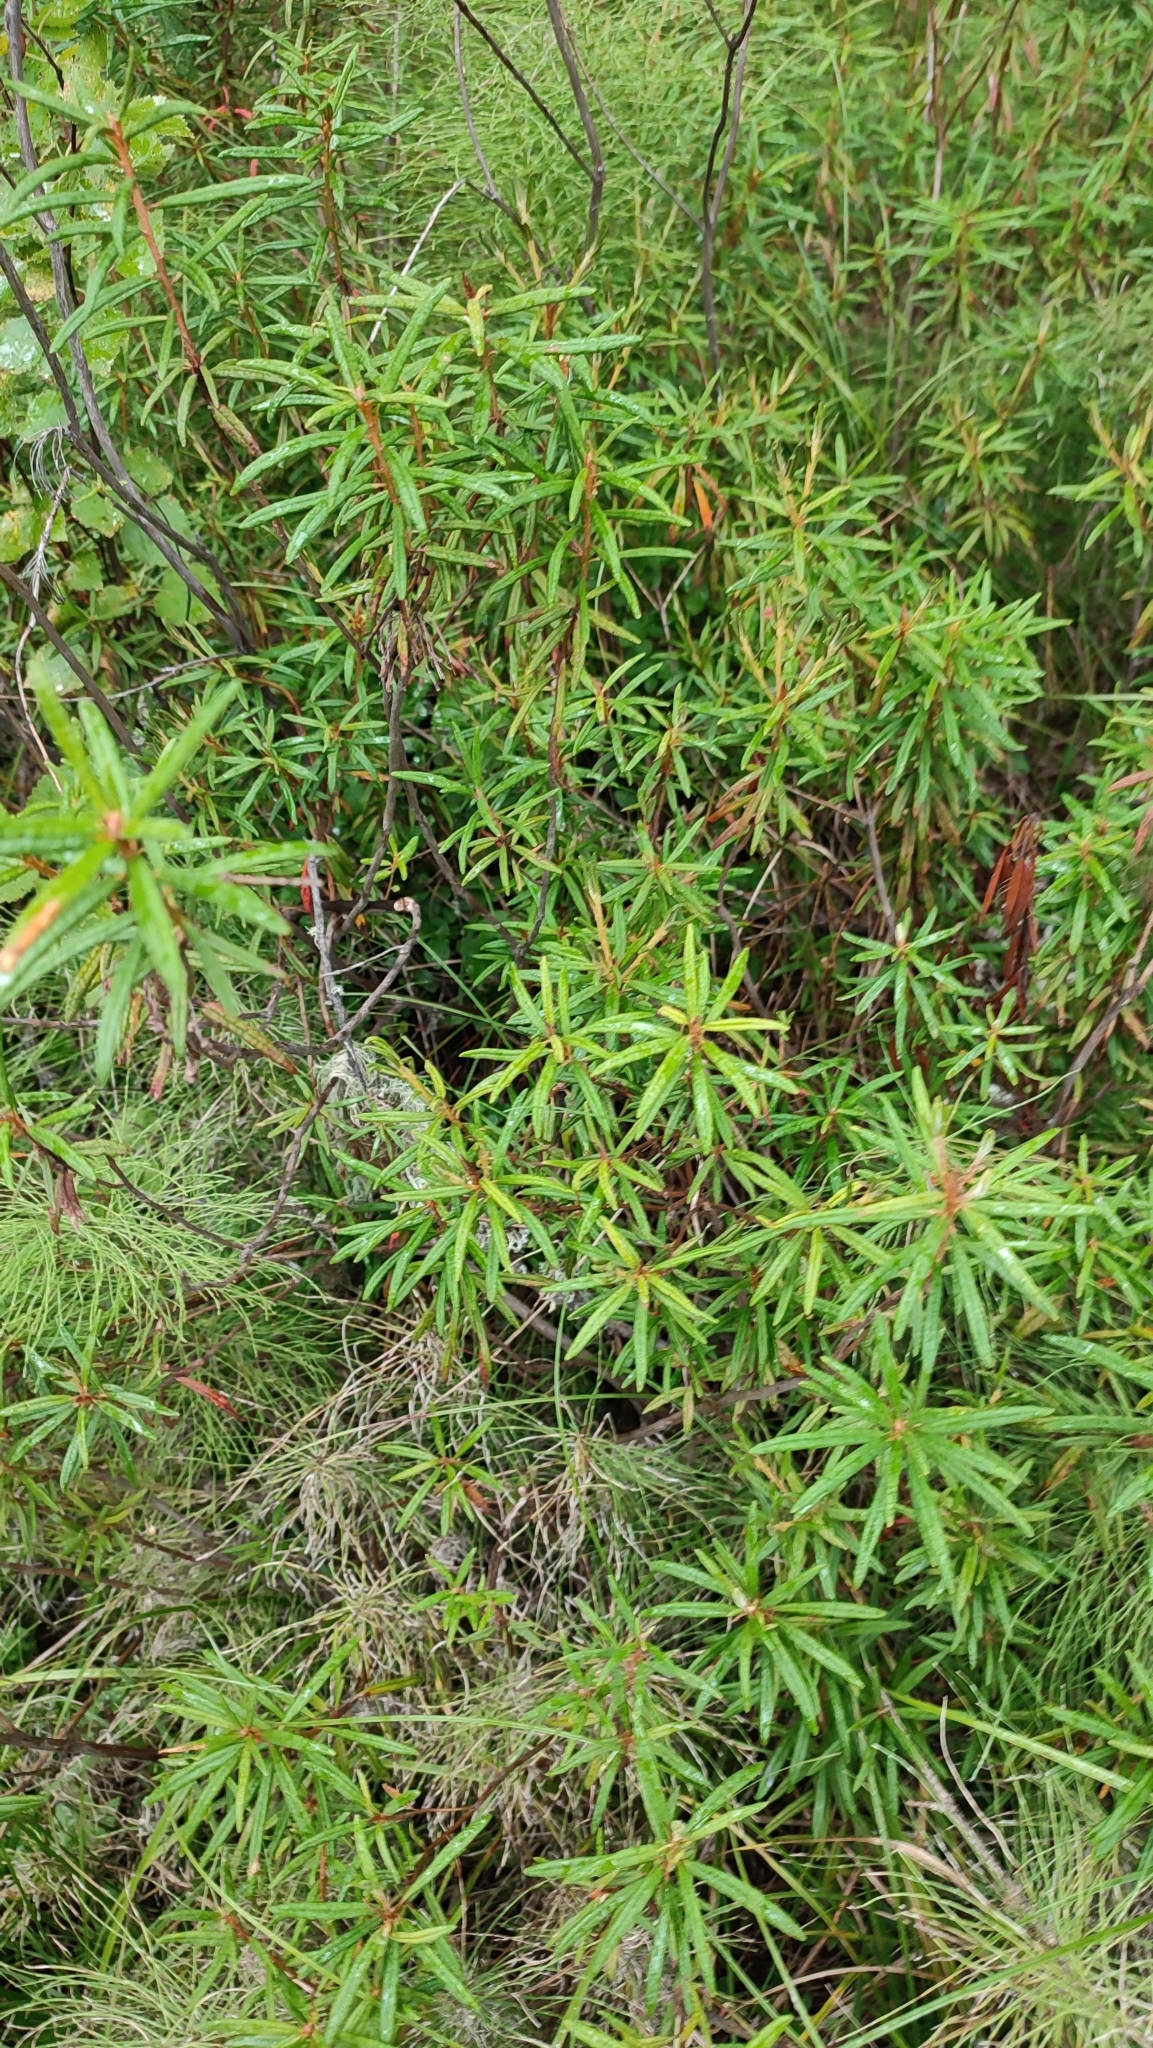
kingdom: Plantae
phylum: Tracheophyta
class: Magnoliopsida
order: Ericales
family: Ericaceae
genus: Rhododendron
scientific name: Rhododendron tomentosum
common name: Marsh labrador tea
